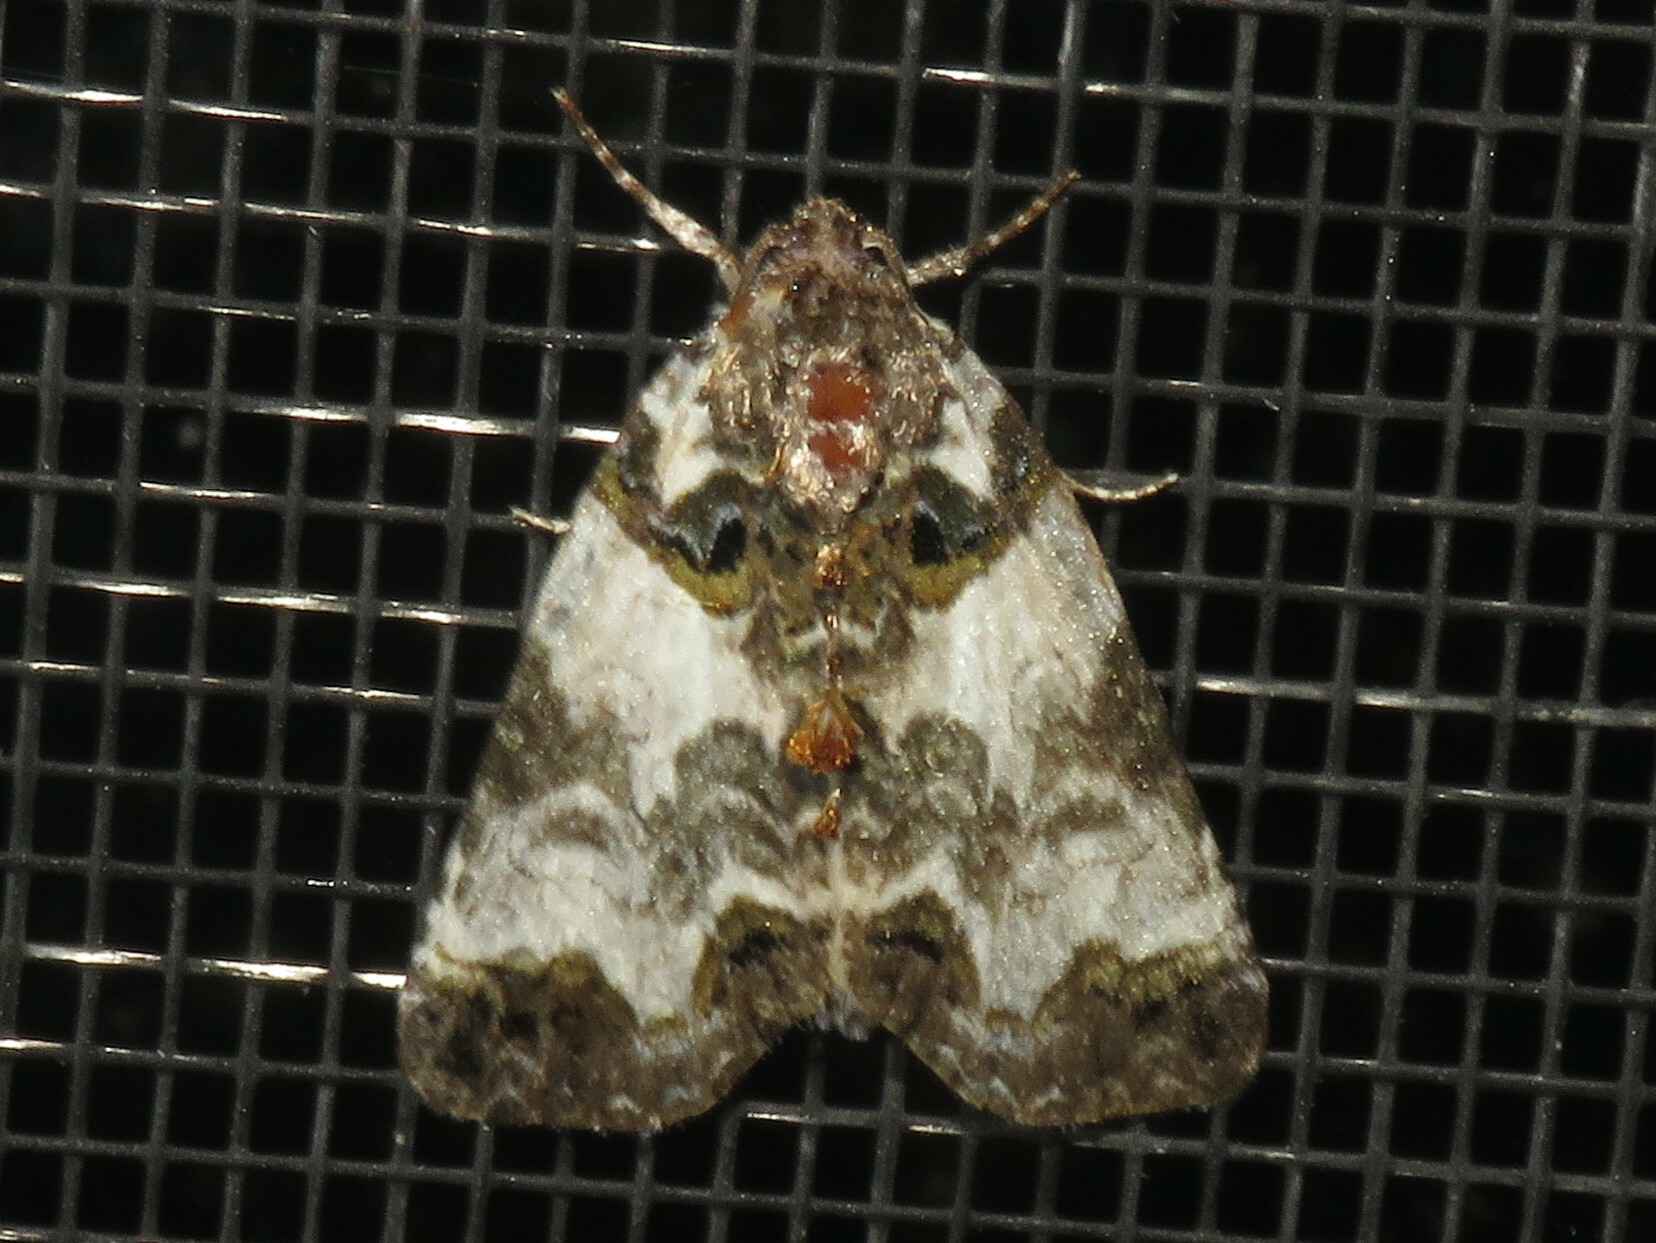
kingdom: Animalia
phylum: Arthropoda
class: Insecta
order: Lepidoptera
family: Noctuidae
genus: Cerma
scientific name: Cerma cerintha
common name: Tufted bird-dropping moth
